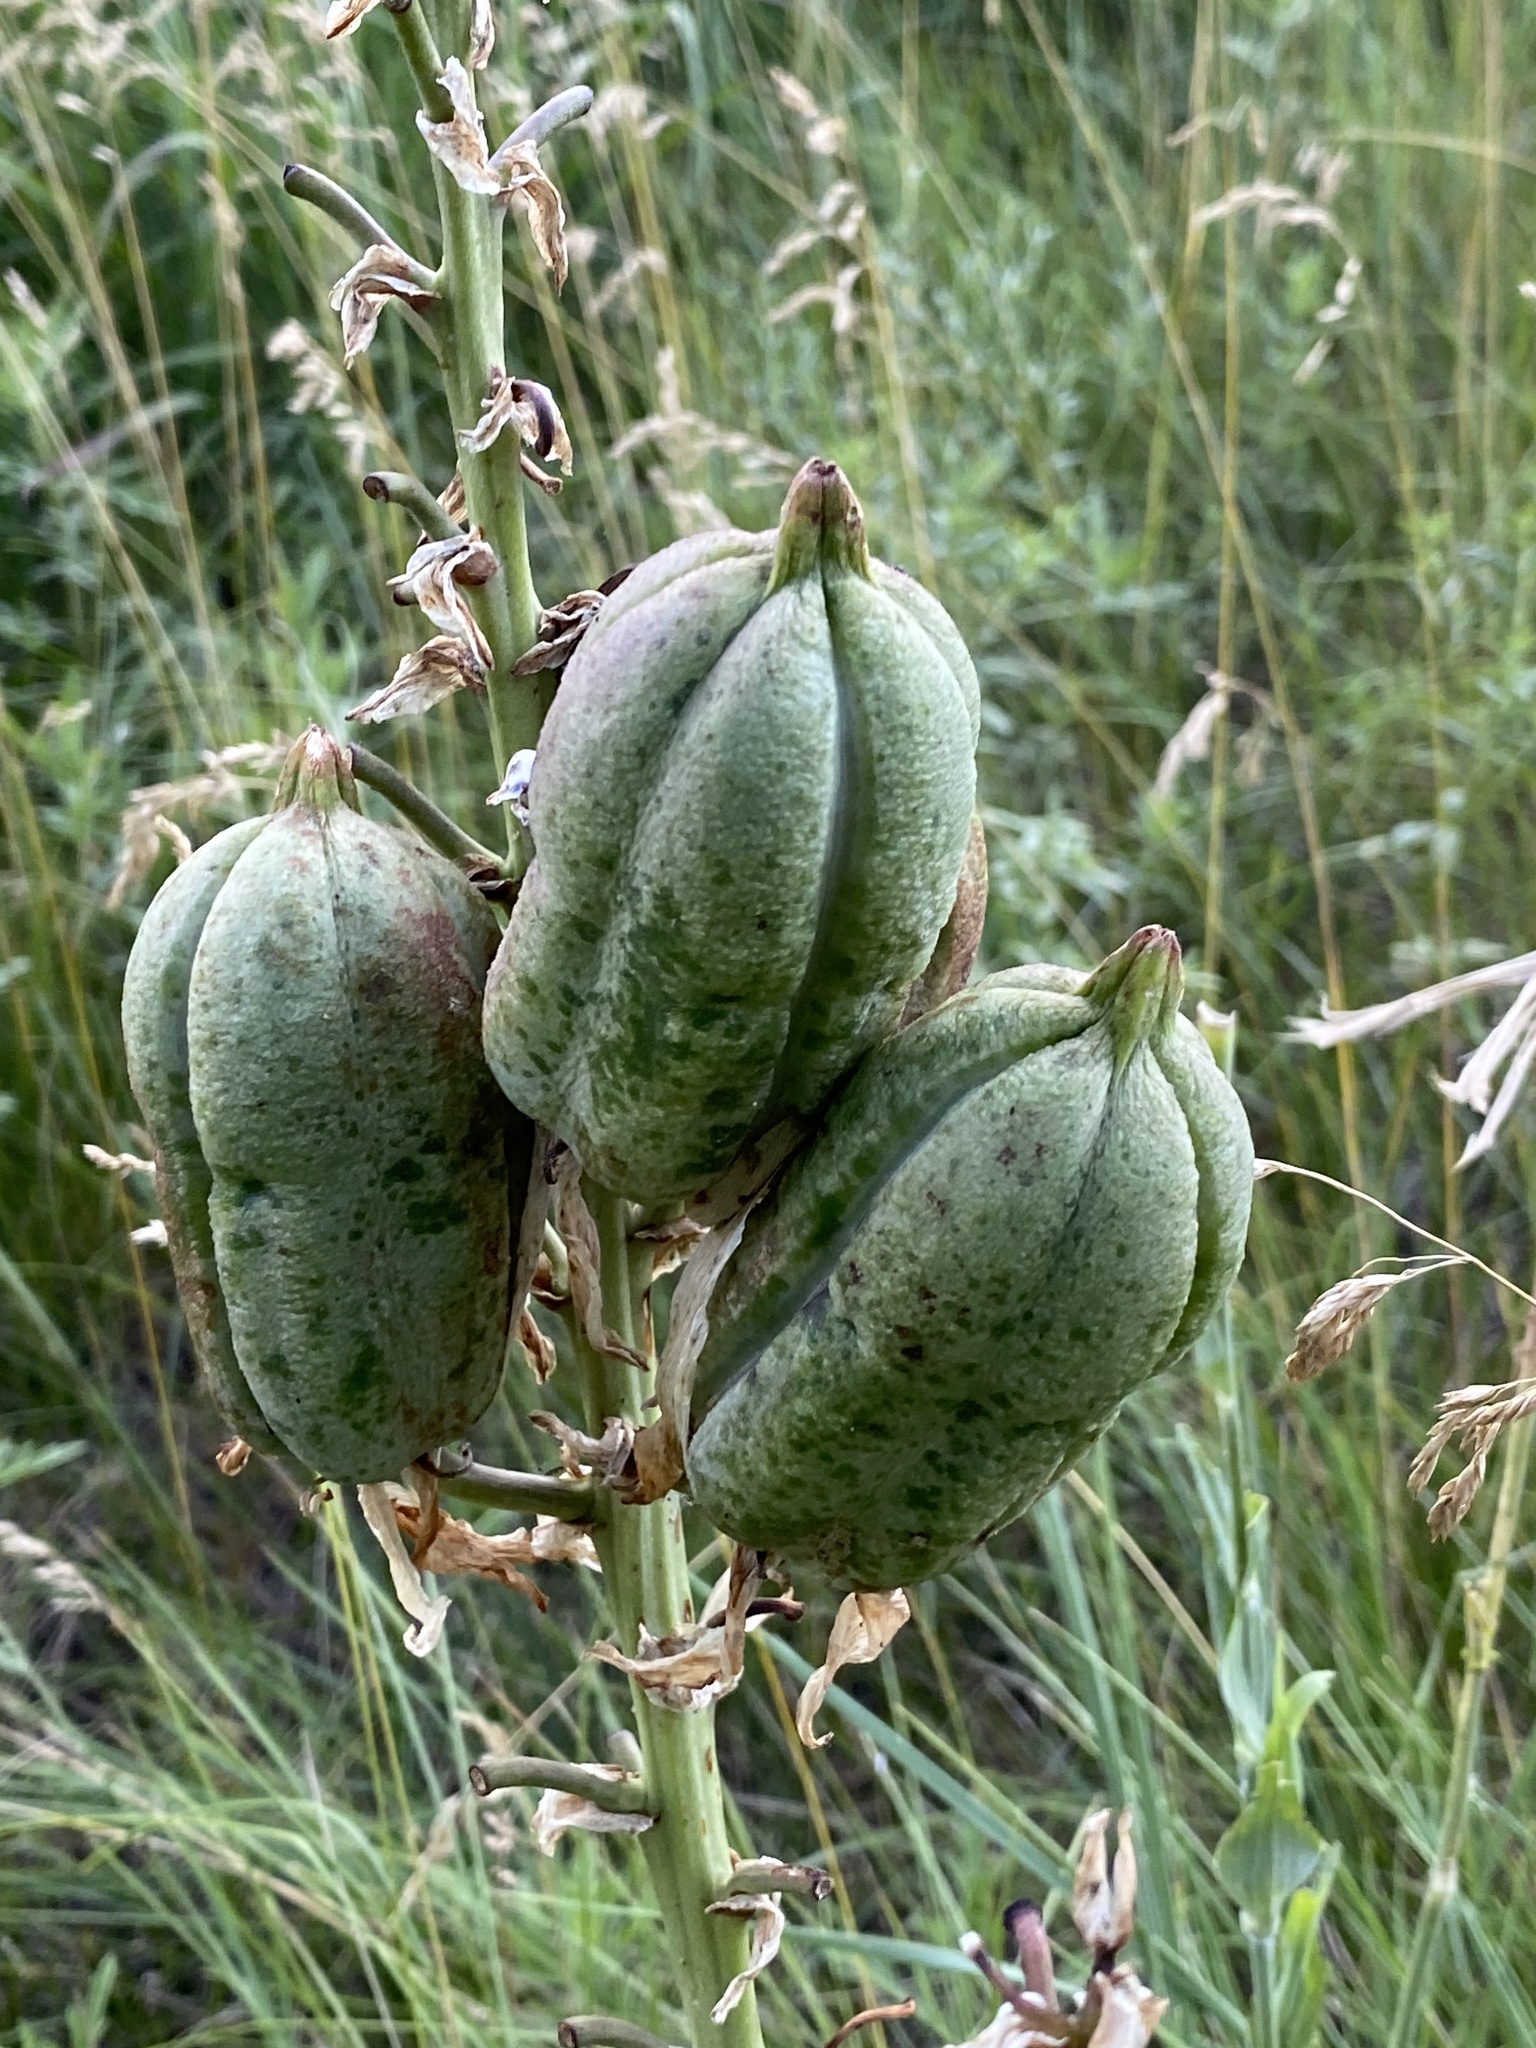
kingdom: Plantae
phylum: Tracheophyta
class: Liliopsida
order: Asparagales
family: Asparagaceae
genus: Yucca
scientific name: Yucca glauca
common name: Great plains yucca
